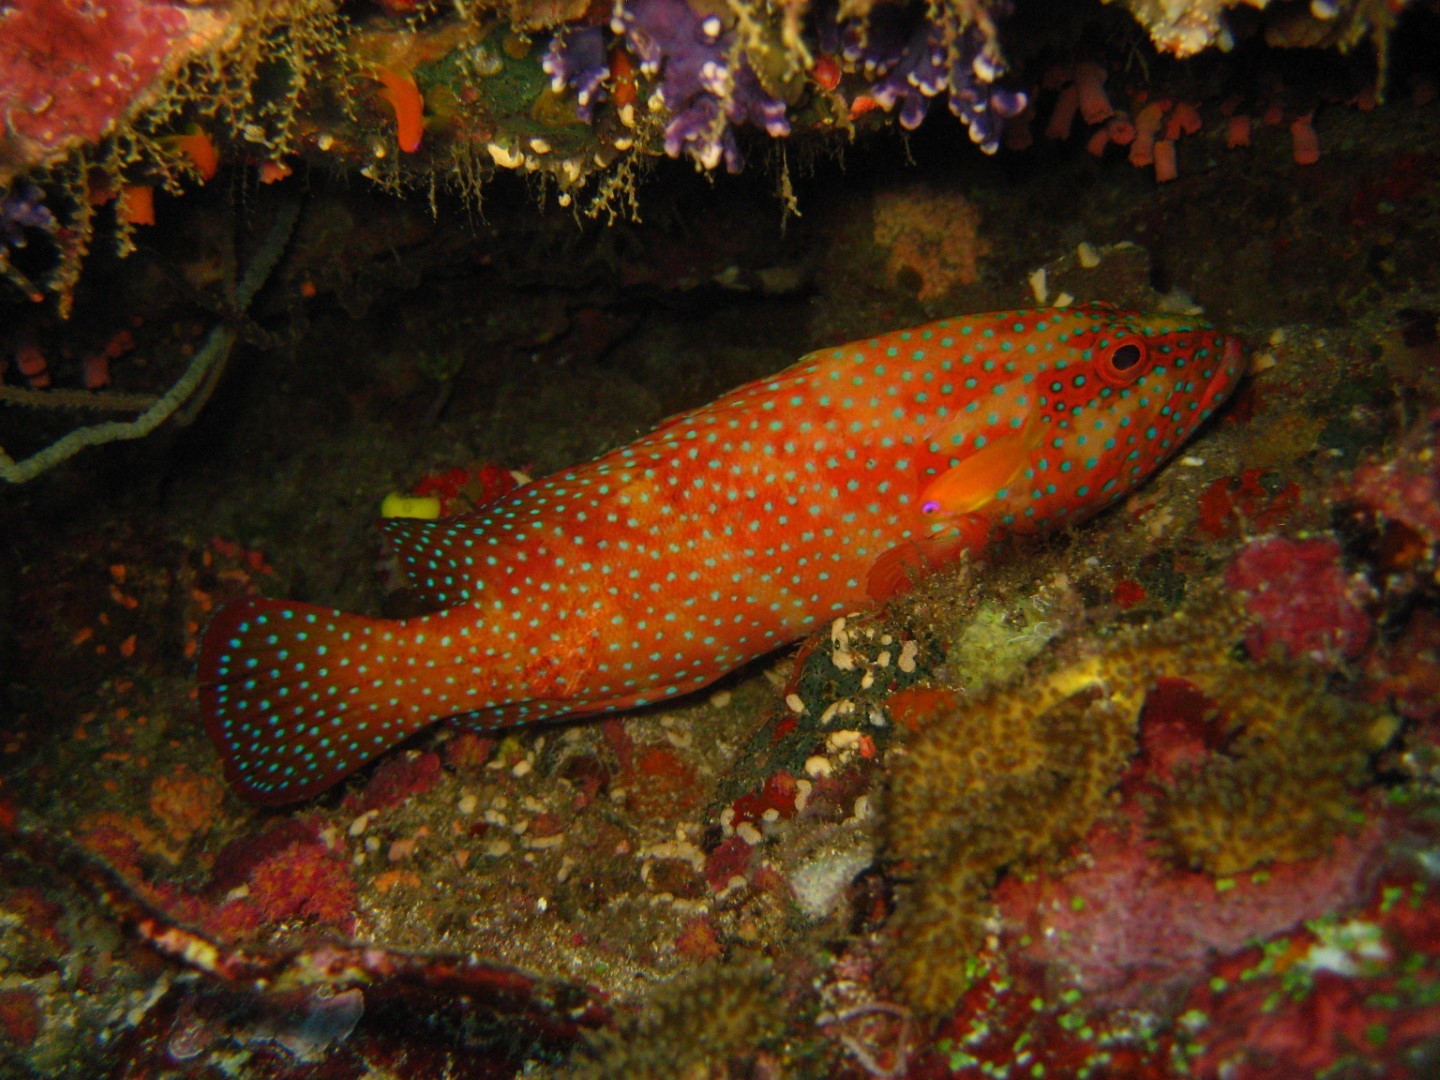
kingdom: Animalia
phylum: Chordata
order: Perciformes
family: Serranidae
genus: Cephalopholis
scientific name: Cephalopholis miniata
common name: Coral hind
